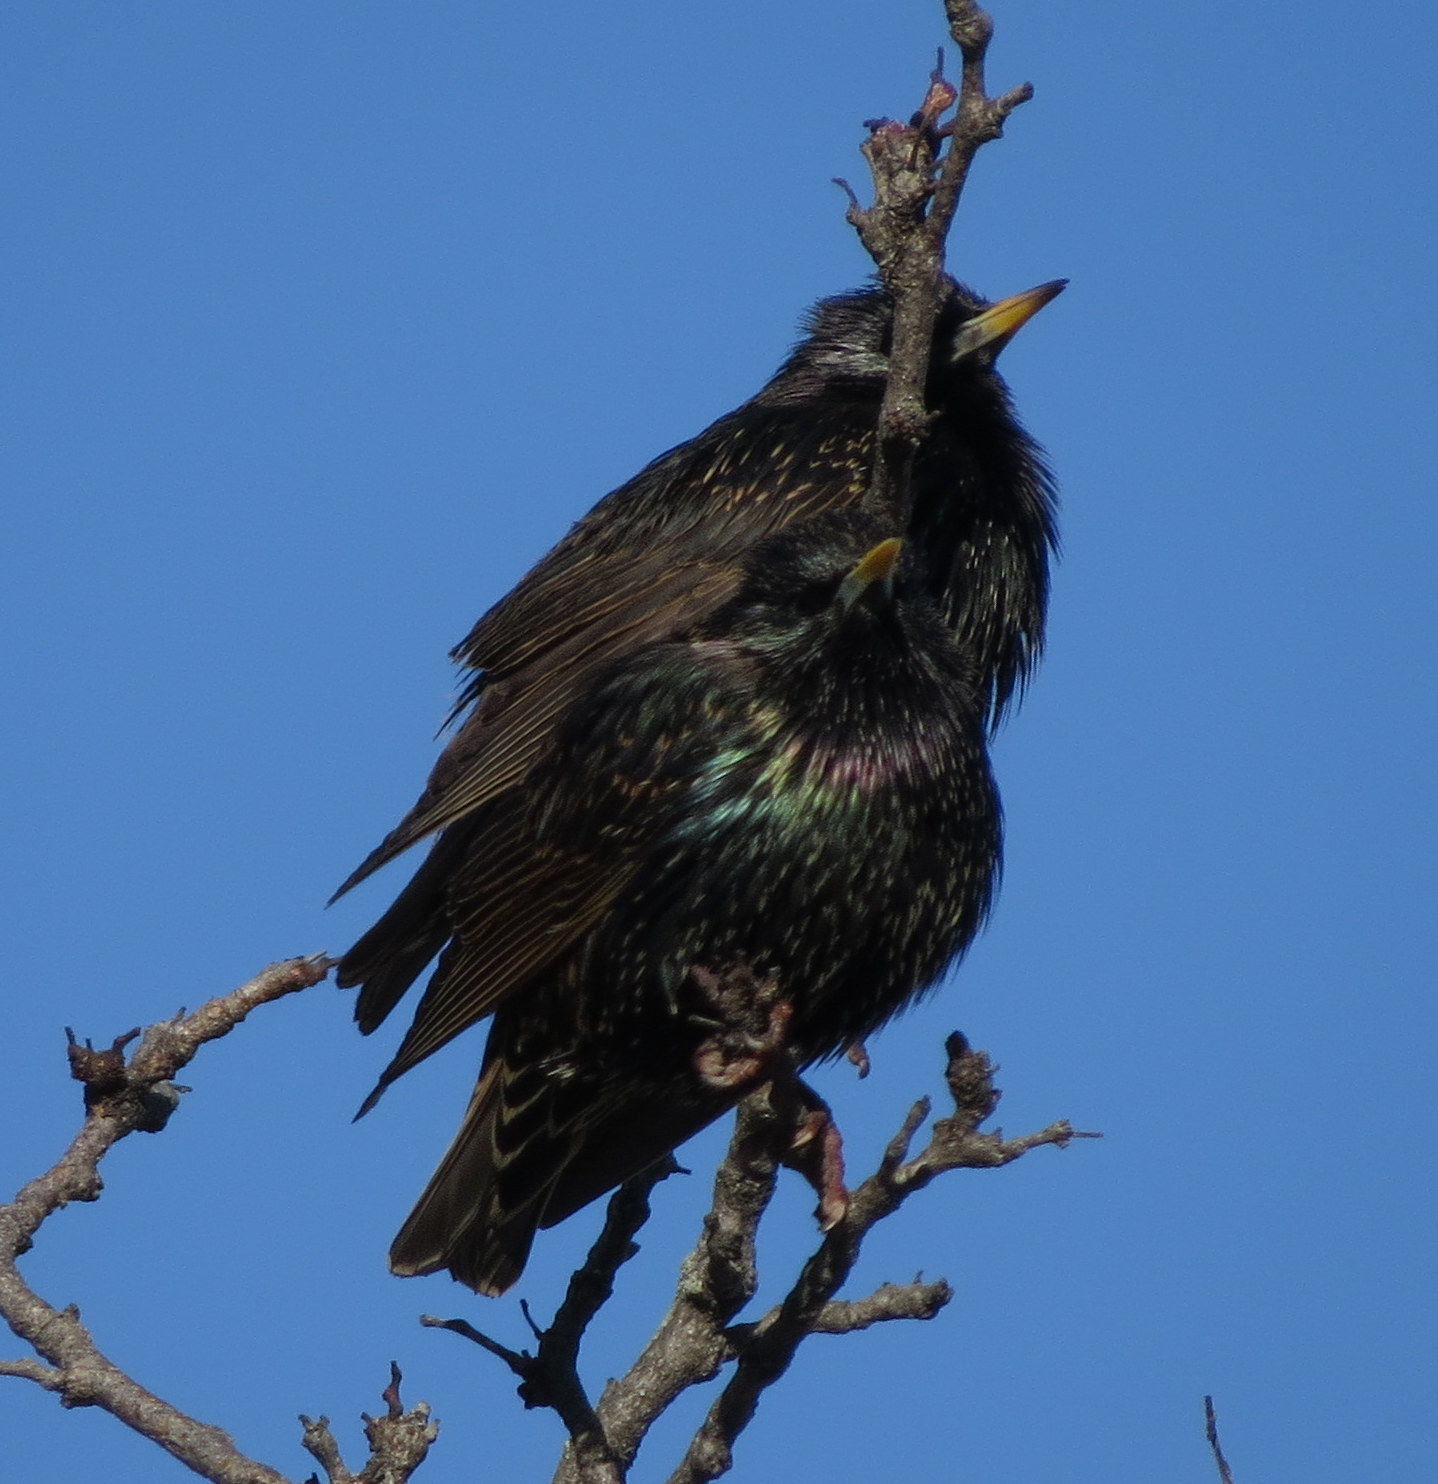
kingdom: Animalia
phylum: Chordata
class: Aves
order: Passeriformes
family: Sturnidae
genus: Sturnus
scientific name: Sturnus vulgaris
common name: Common starling
